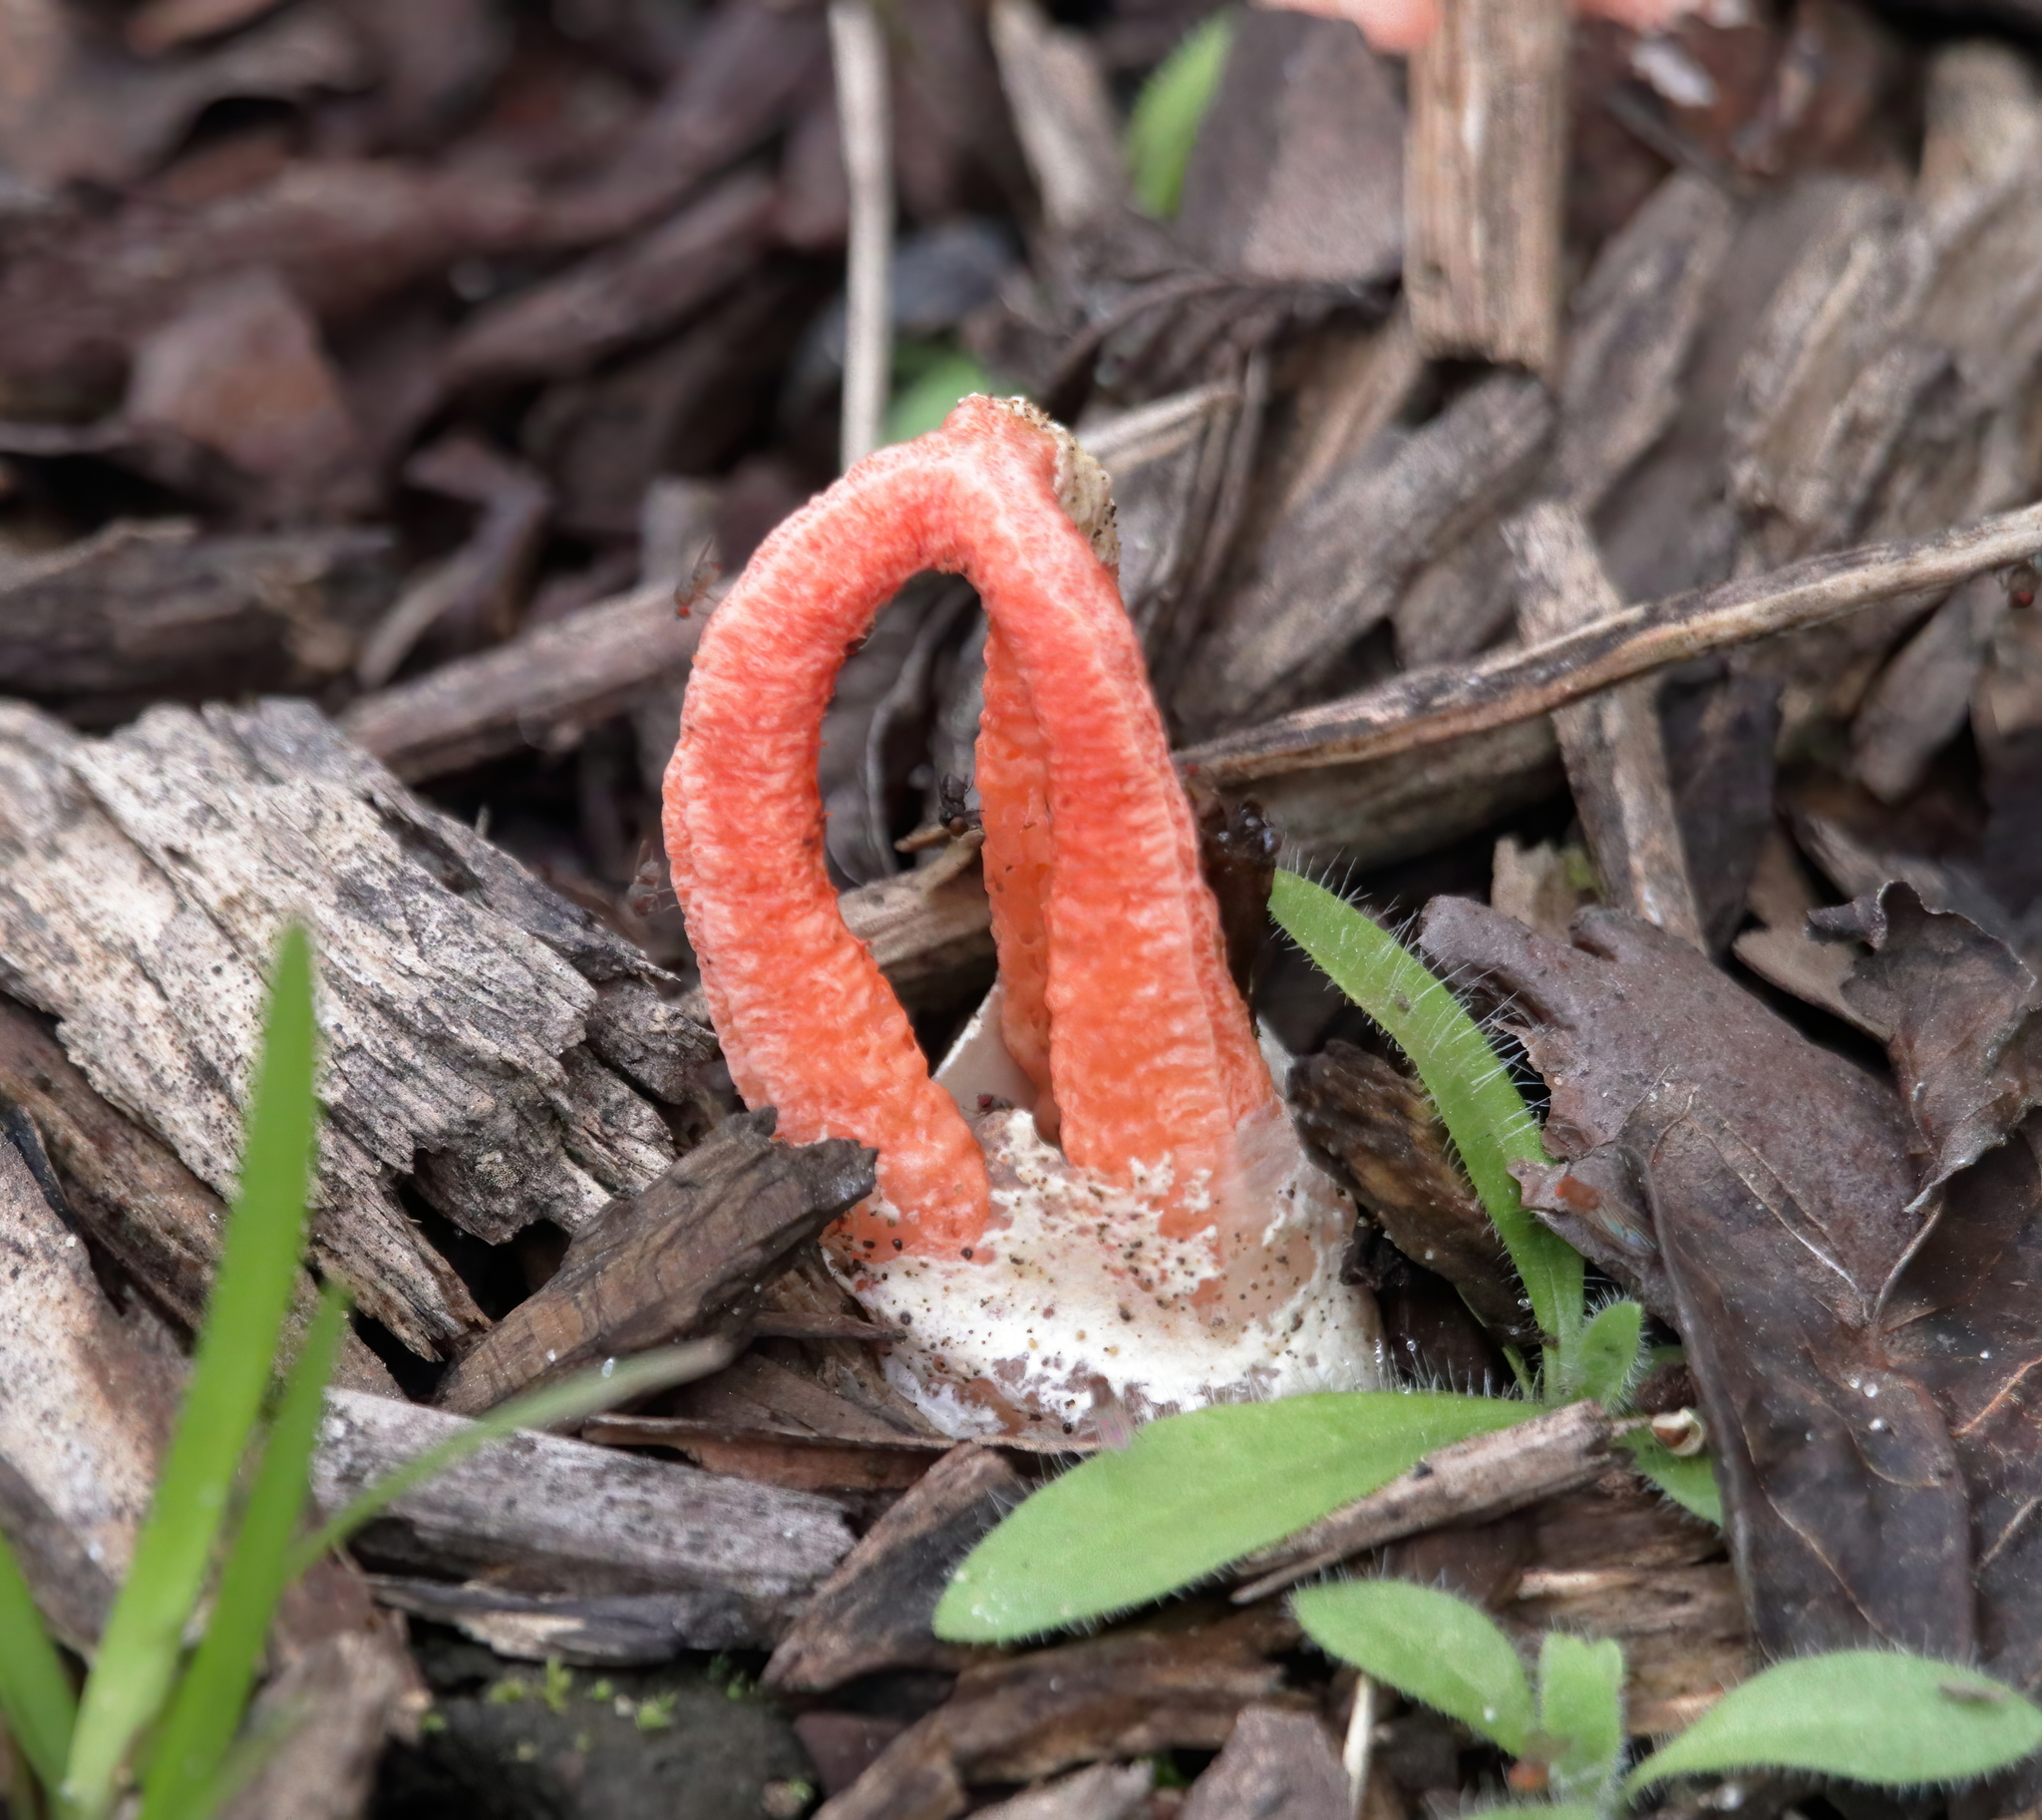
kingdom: Fungi
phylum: Basidiomycota
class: Agaricomycetes
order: Phallales
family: Phallaceae
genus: Clathrus
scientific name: Clathrus columnatus
